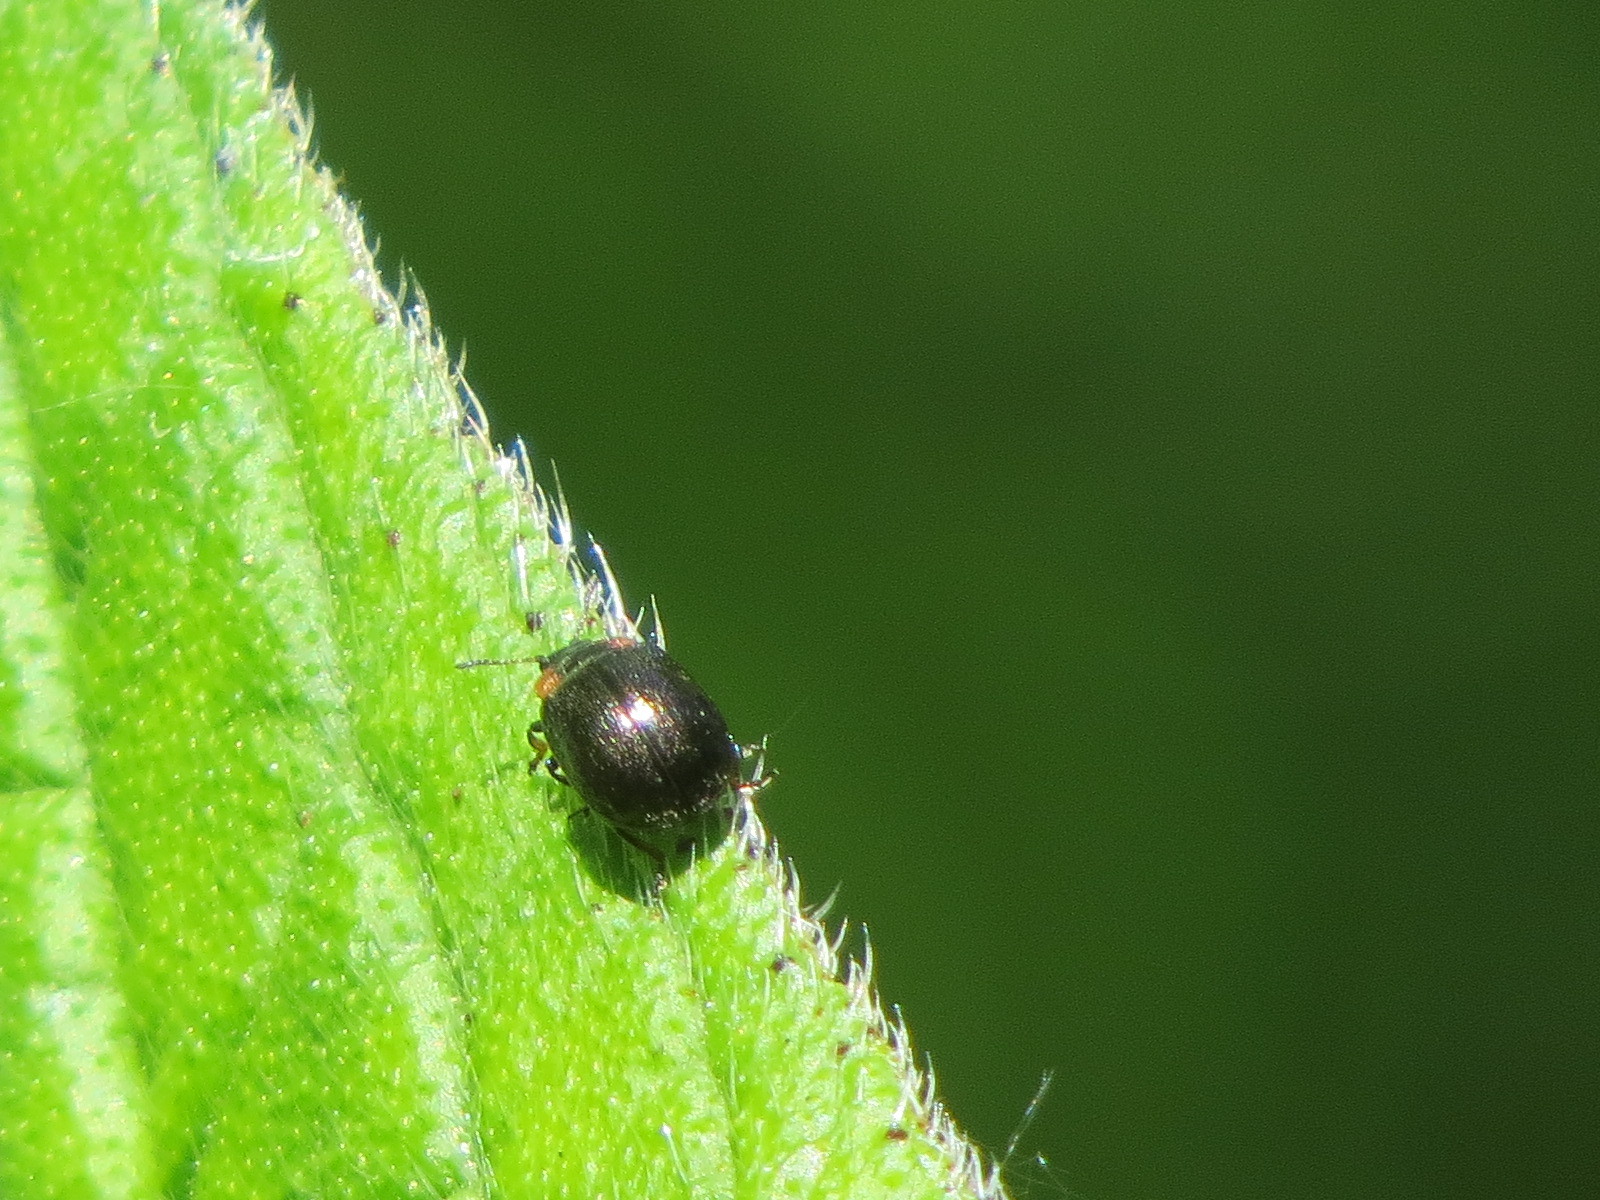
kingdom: Animalia
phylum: Arthropoda
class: Insecta
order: Coleoptera
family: Chrysomelidae
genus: Chrysomela
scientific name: Chrysomela schaefferi
